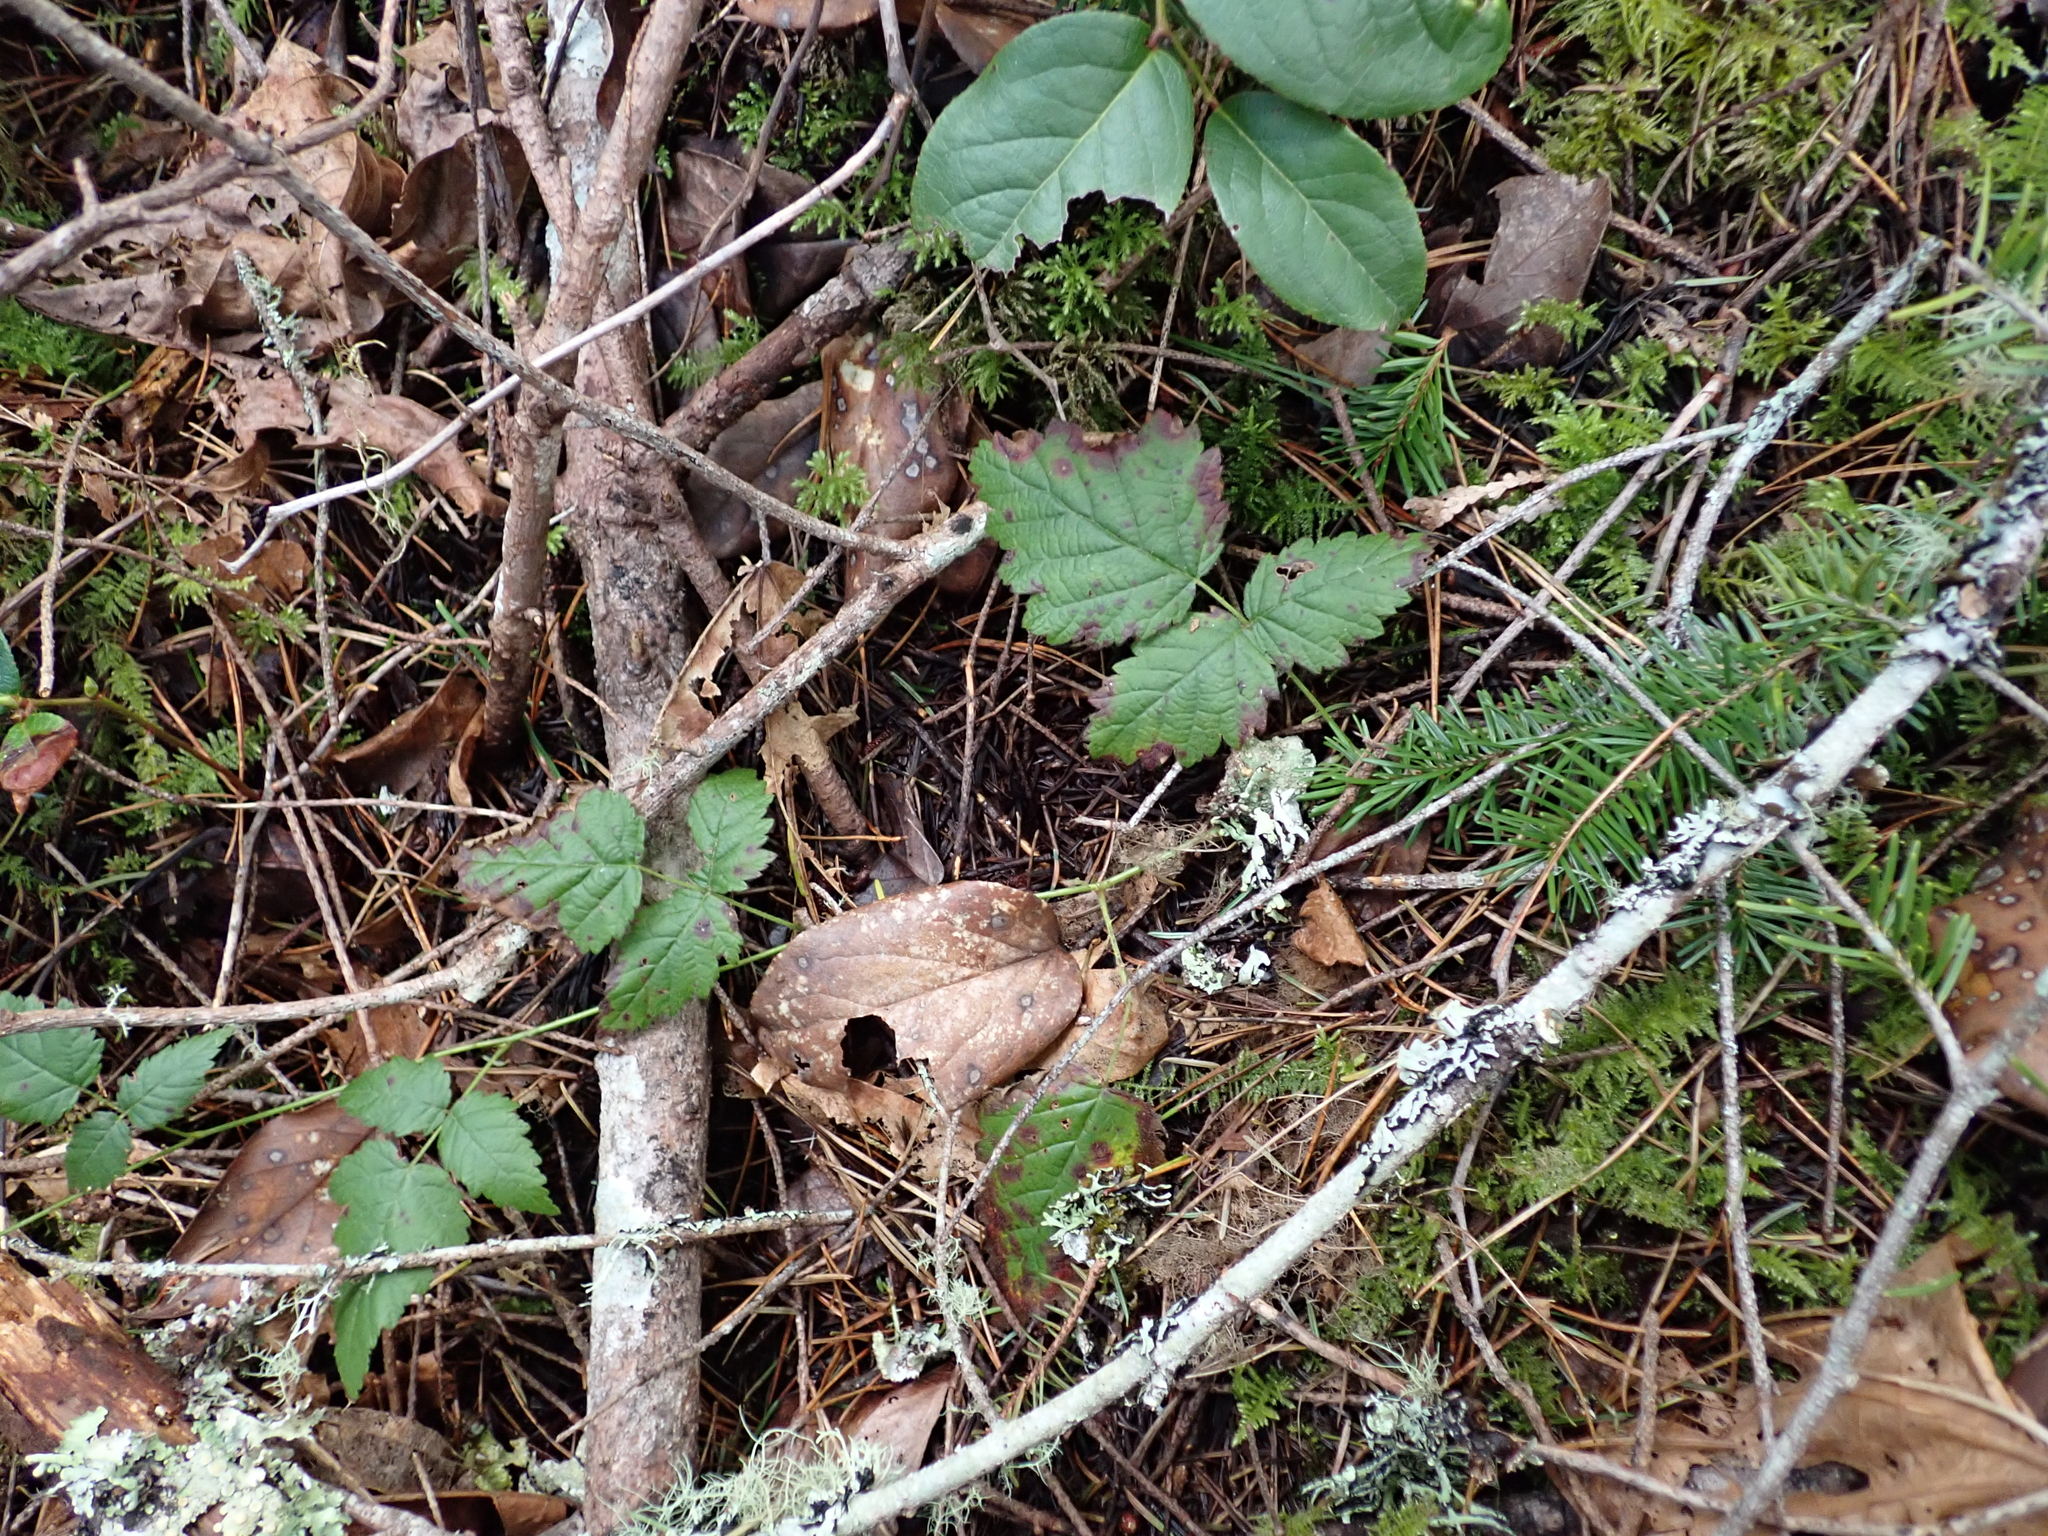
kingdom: Plantae
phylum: Tracheophyta
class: Magnoliopsida
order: Rosales
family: Rosaceae
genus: Rubus
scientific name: Rubus ursinus
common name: Pacific blackberry
